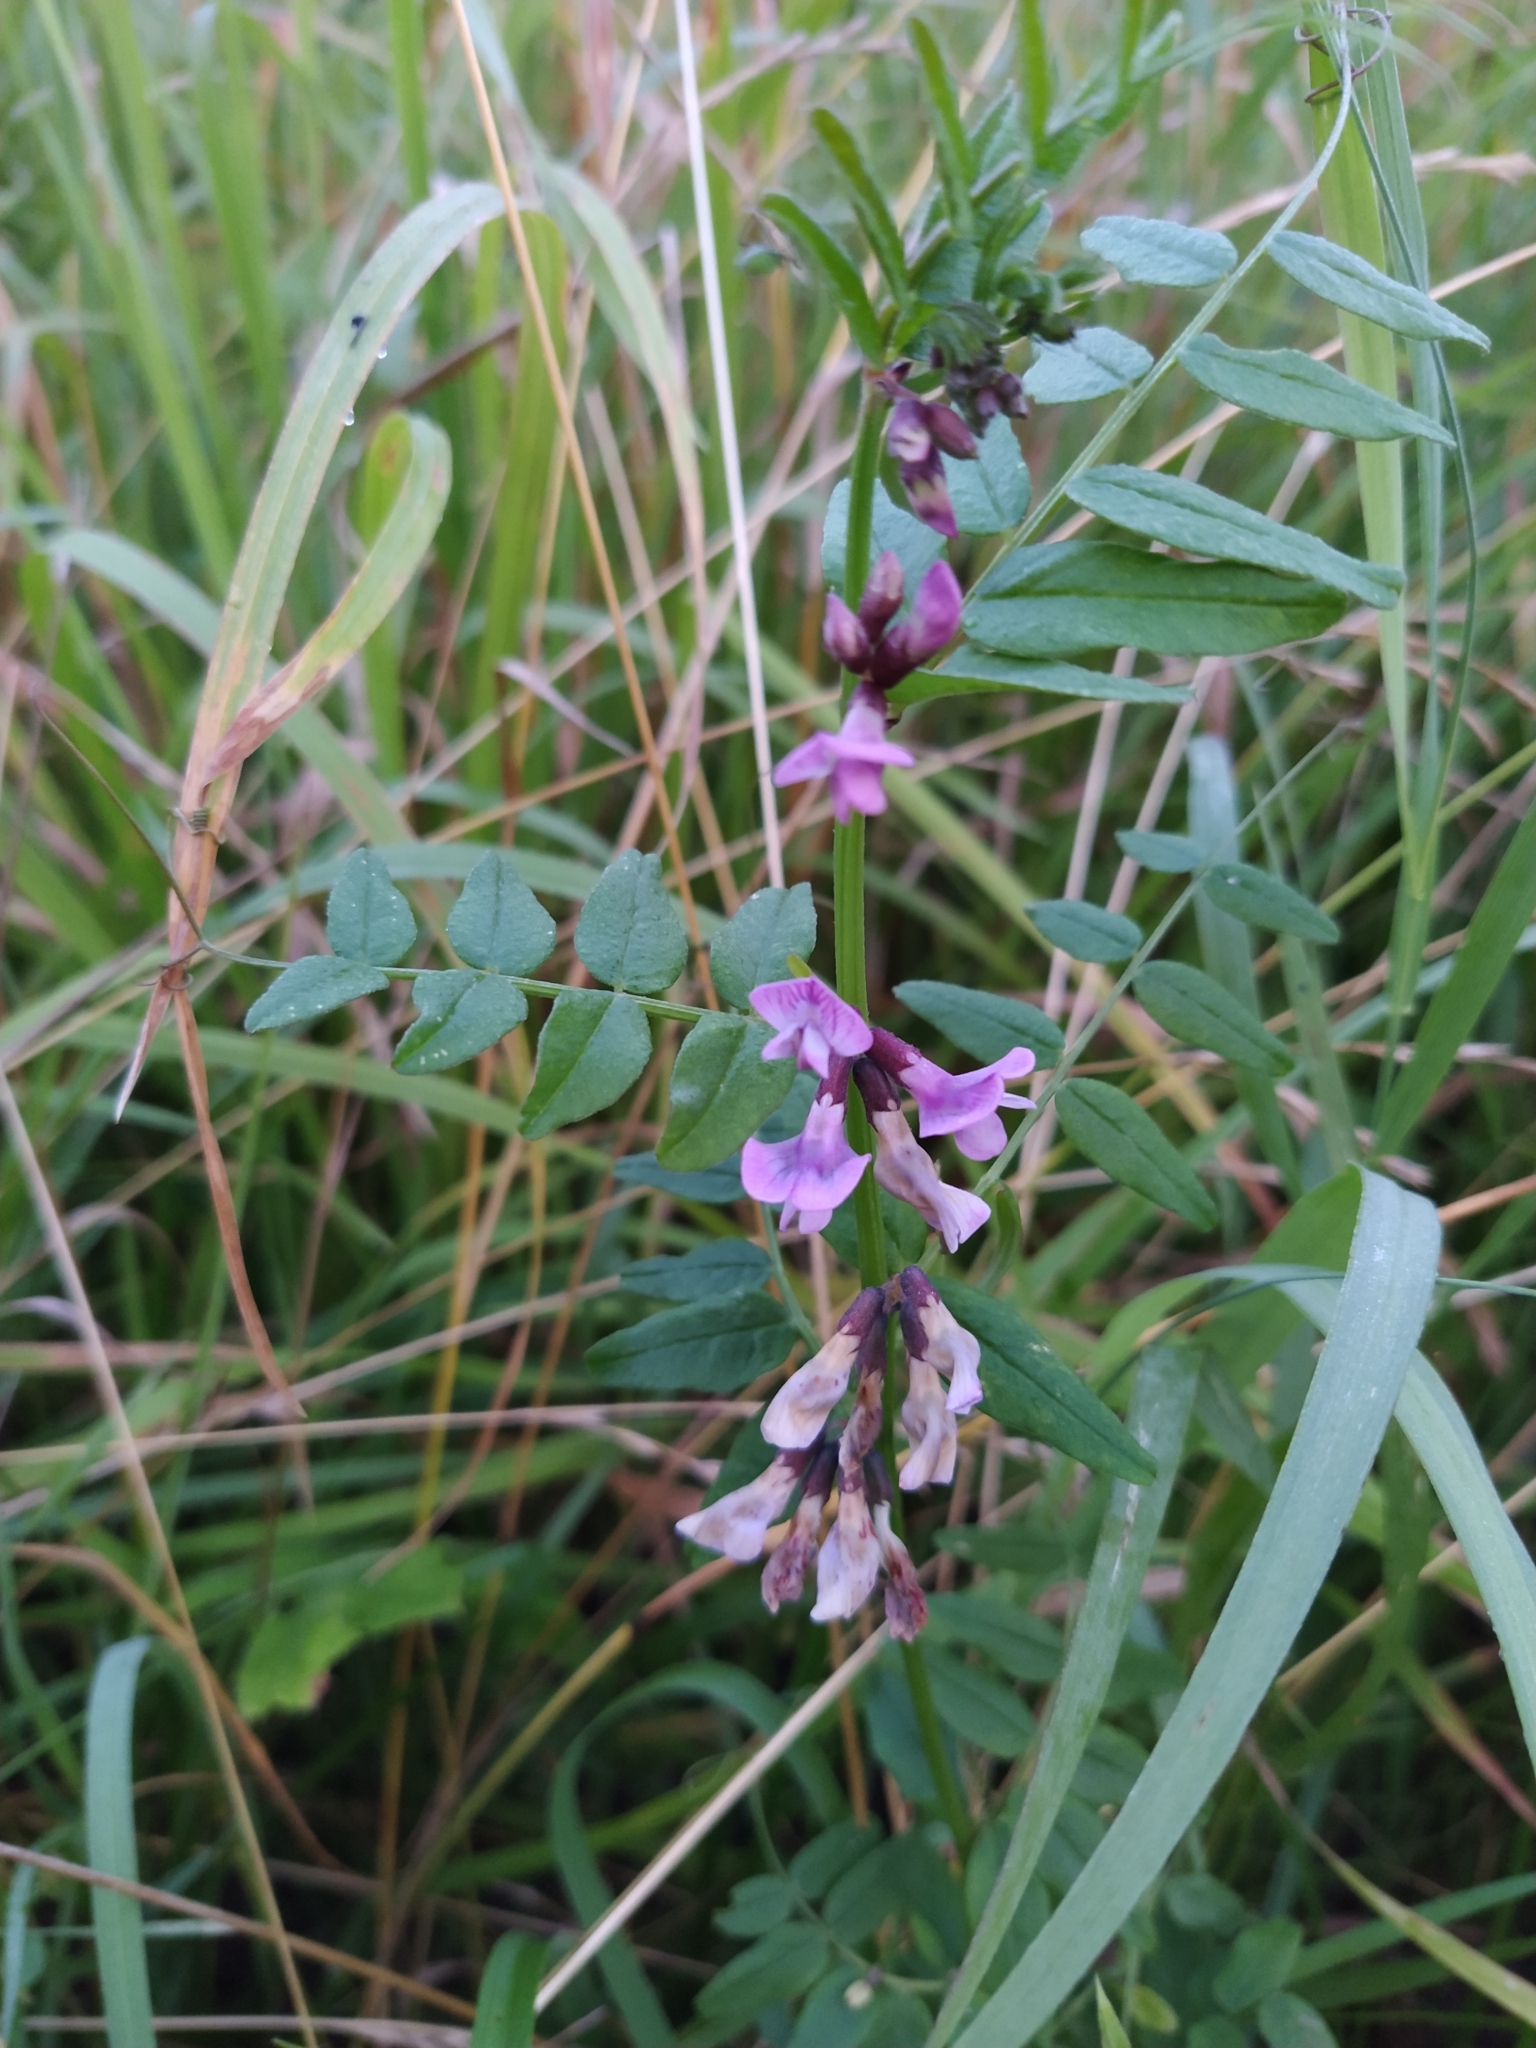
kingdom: Plantae
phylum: Tracheophyta
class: Magnoliopsida
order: Fabales
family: Fabaceae
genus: Vicia
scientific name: Vicia sepium
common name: Bush vetch
